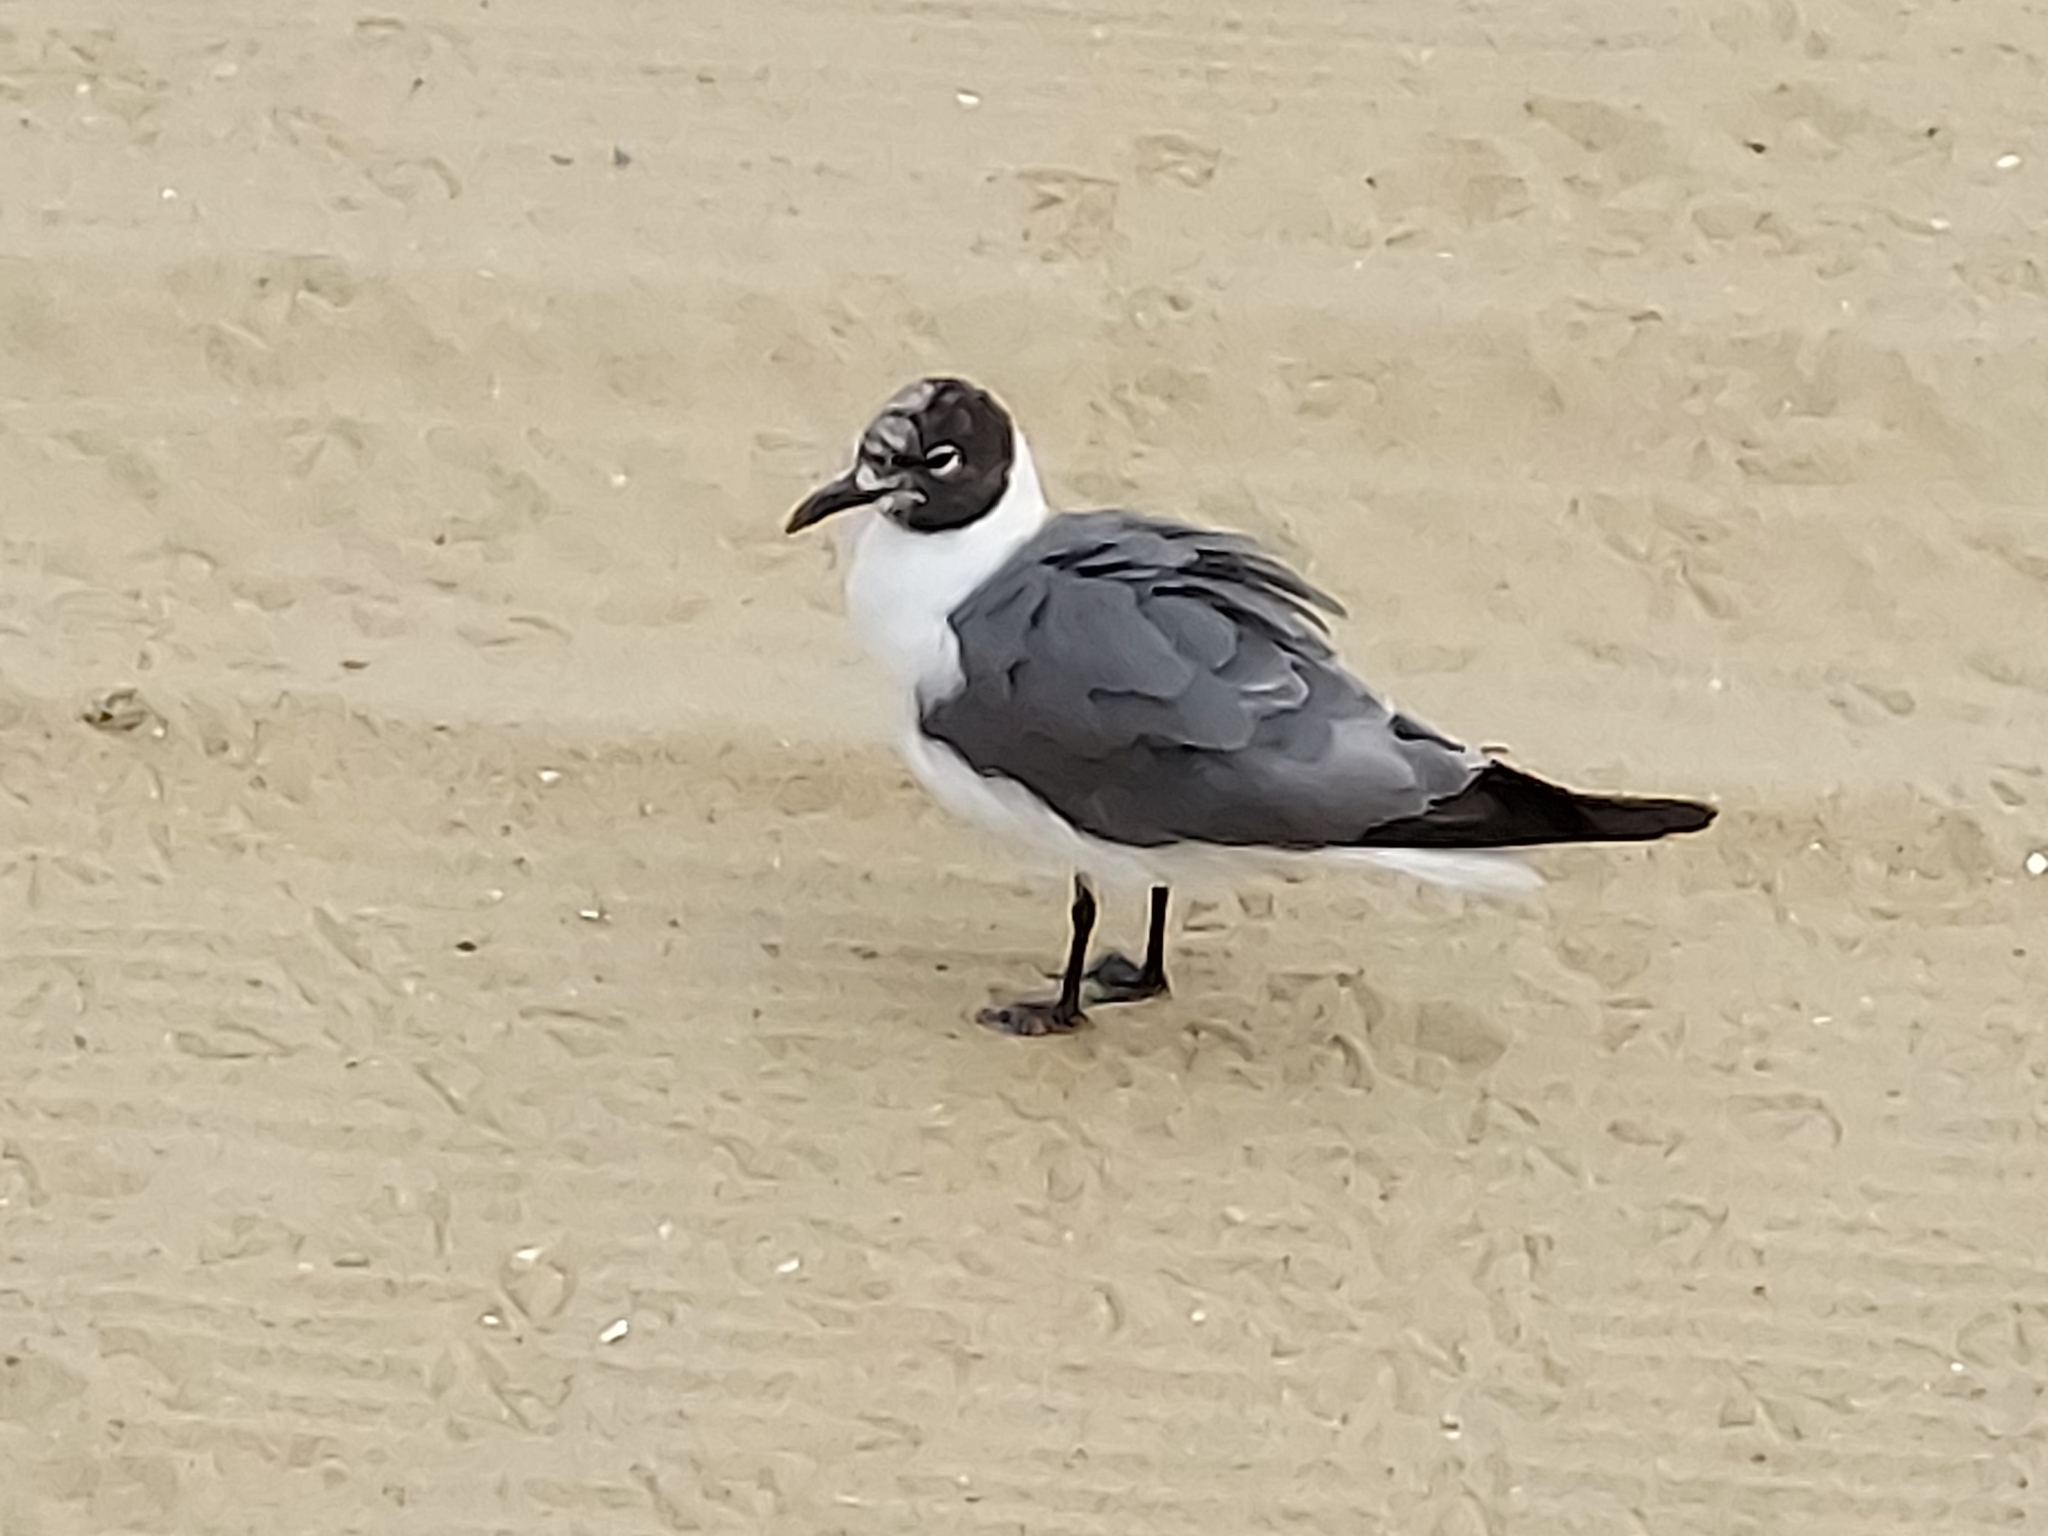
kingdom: Animalia
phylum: Chordata
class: Aves
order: Charadriiformes
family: Laridae
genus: Leucophaeus
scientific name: Leucophaeus atricilla
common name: Laughing gull
